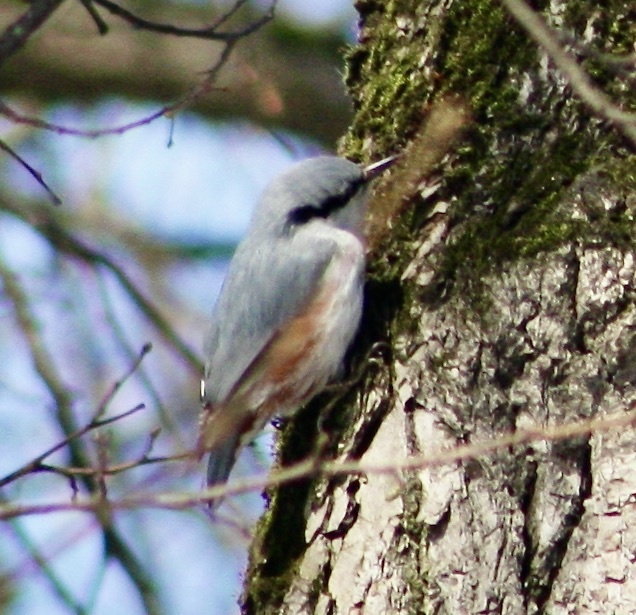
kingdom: Animalia
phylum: Chordata
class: Aves
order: Passeriformes
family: Sittidae
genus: Sitta
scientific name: Sitta europaea
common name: Eurasian nuthatch
